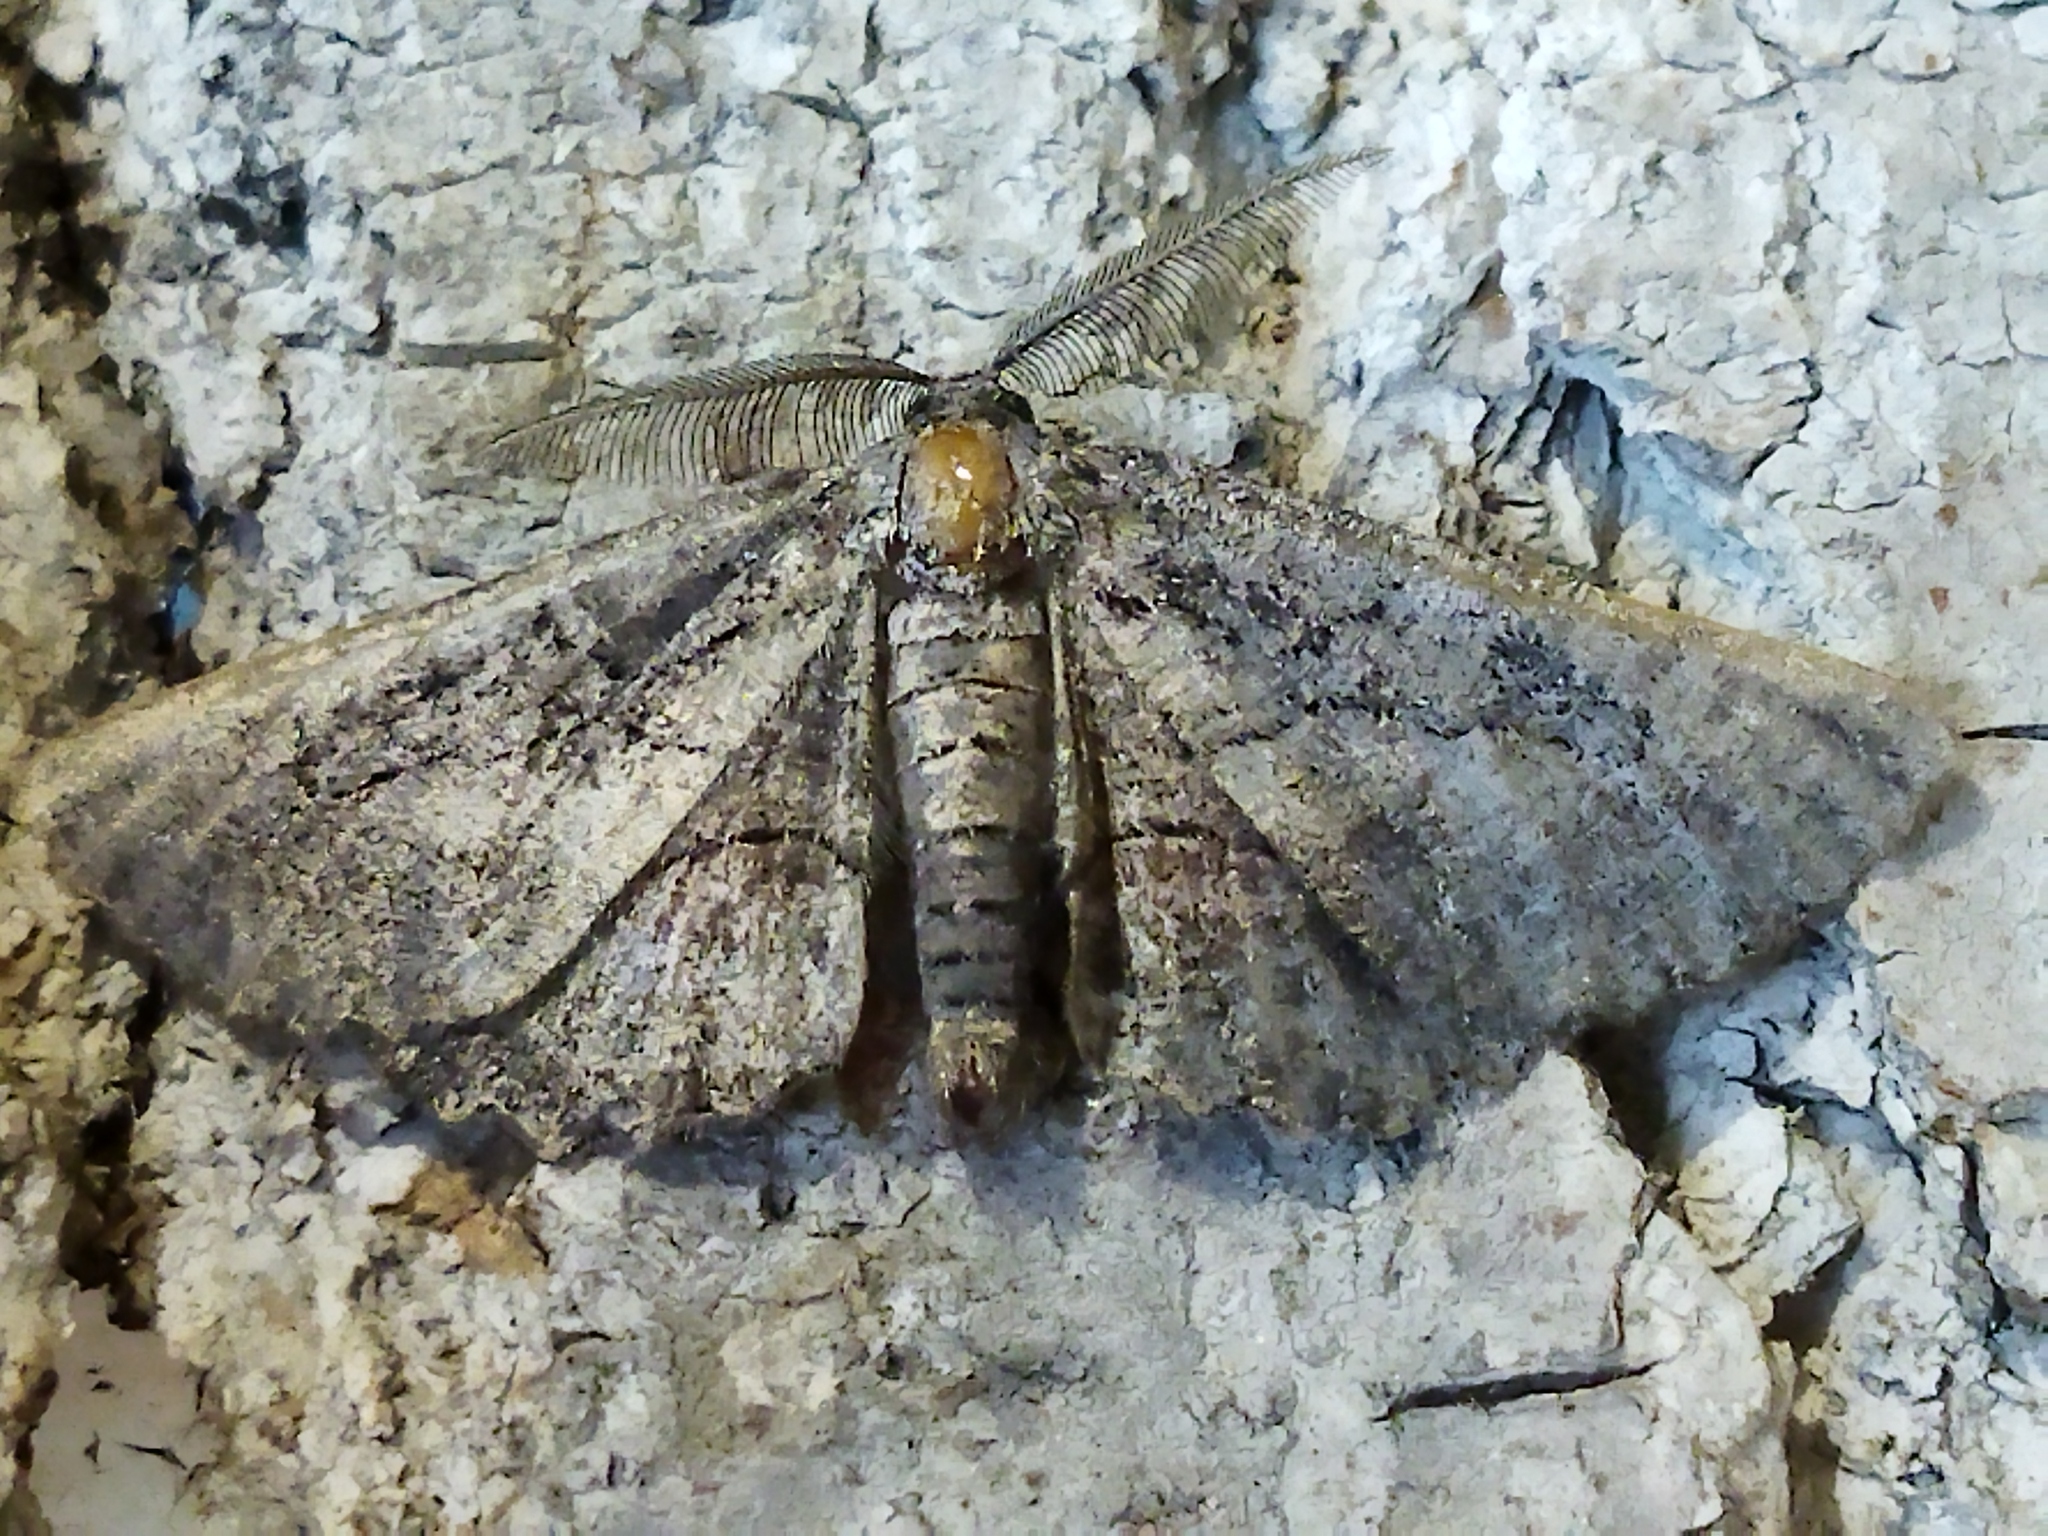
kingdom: Animalia
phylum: Arthropoda
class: Insecta
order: Lepidoptera
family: Geometridae
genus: Nychiodes
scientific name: Nychiodes waltheri
